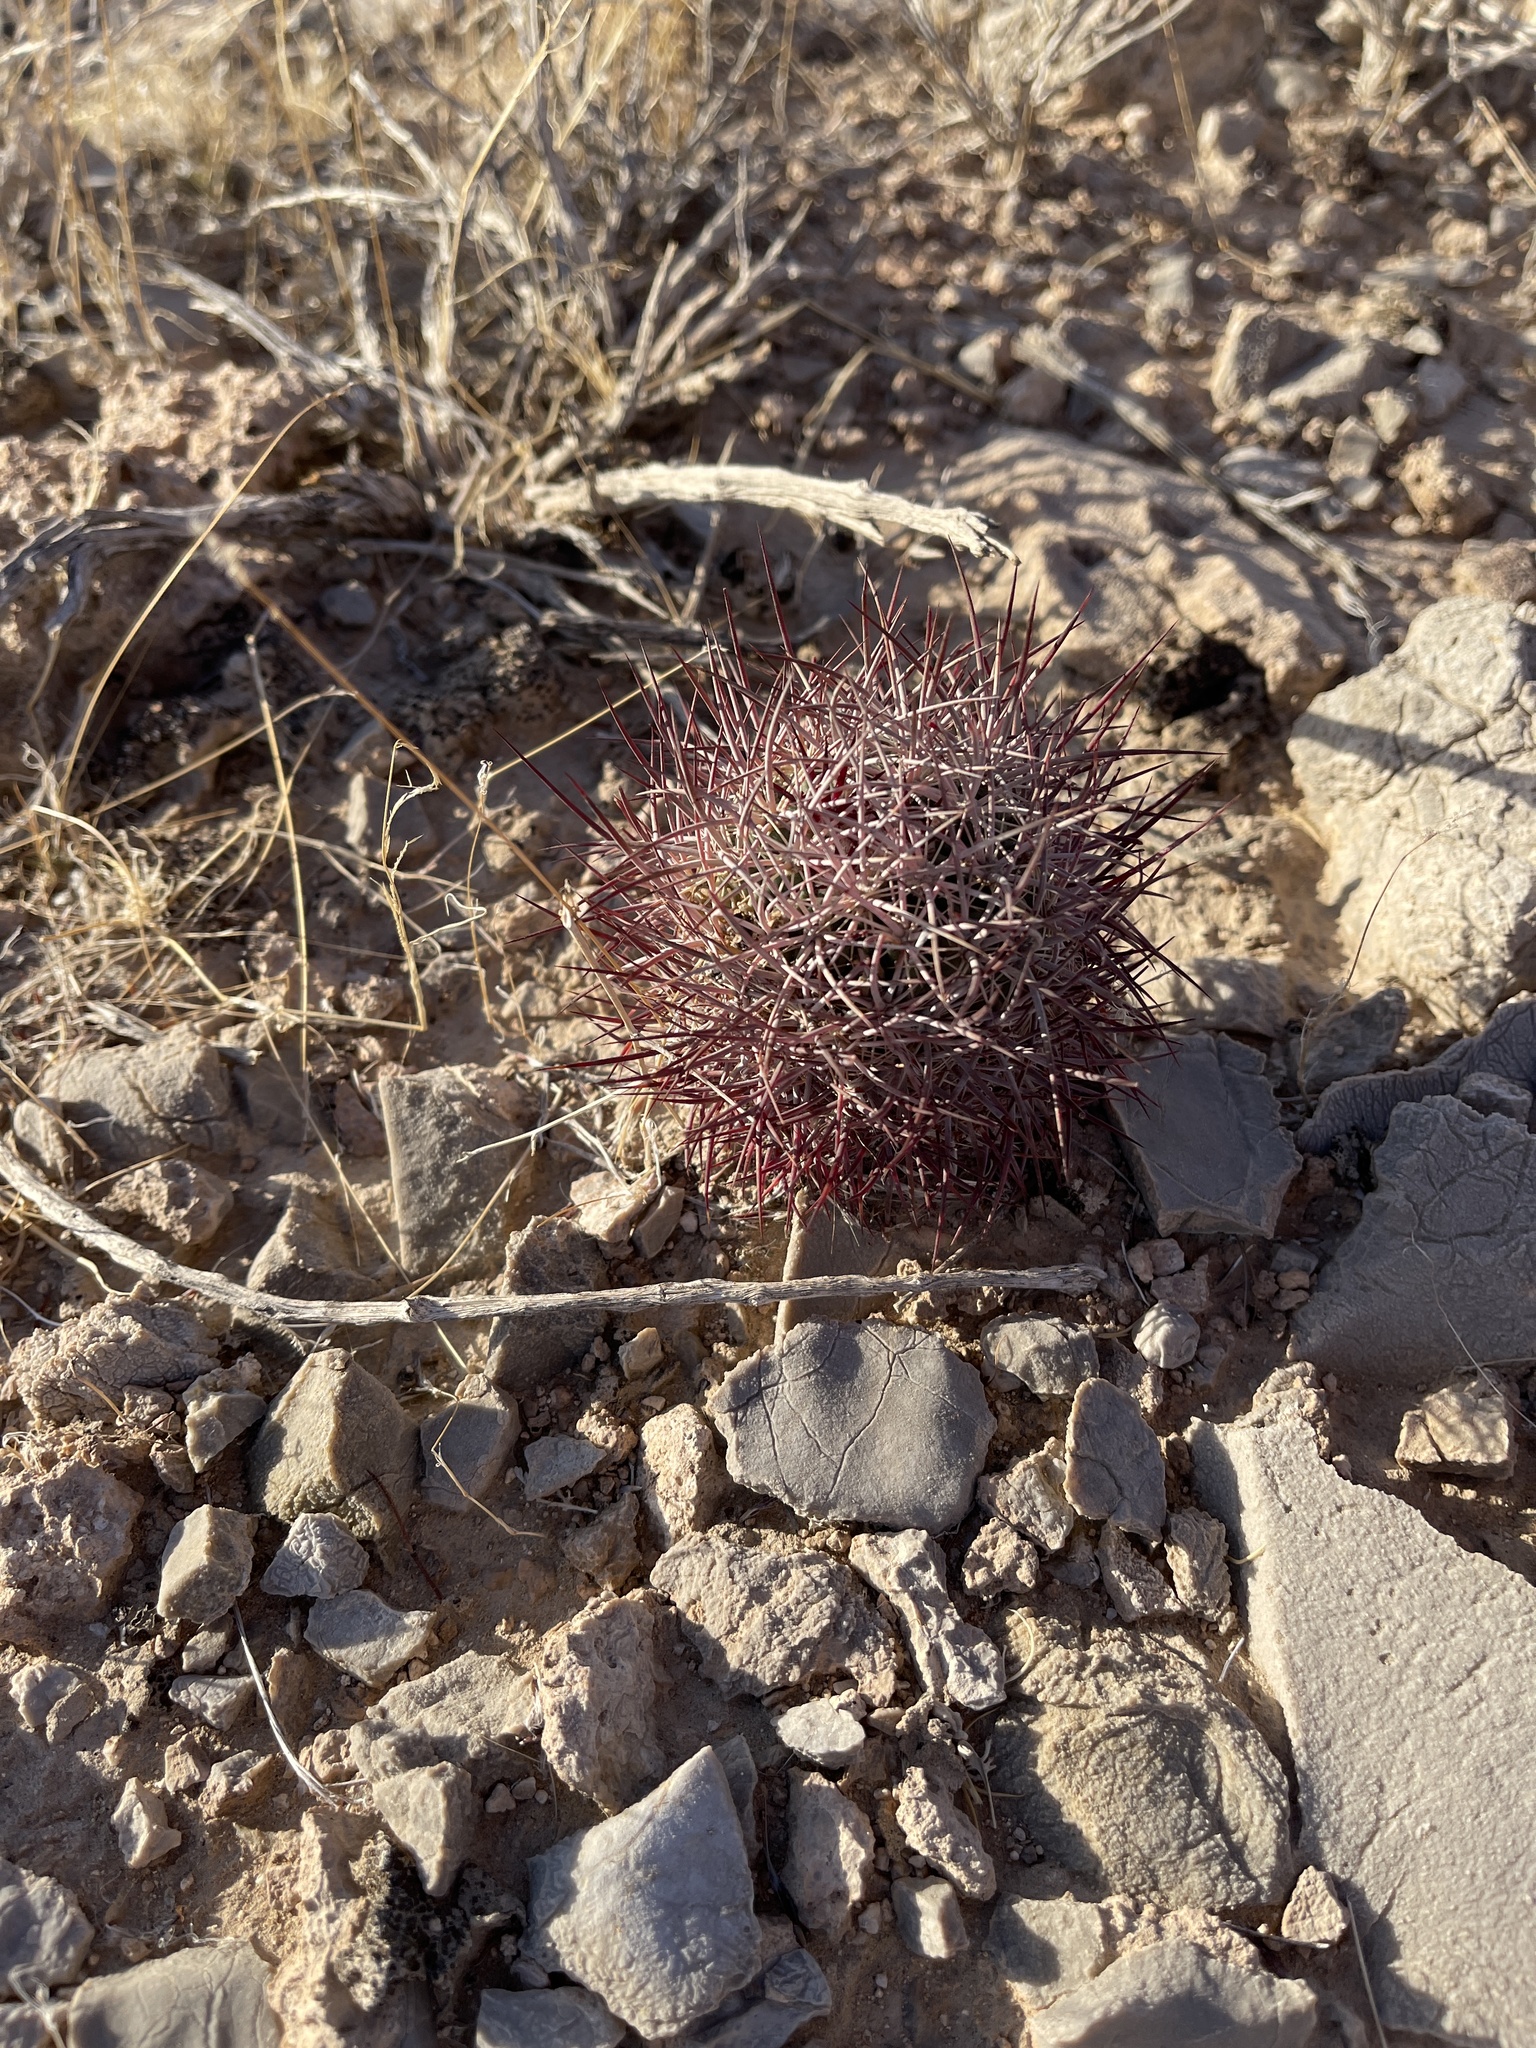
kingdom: Plantae
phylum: Tracheophyta
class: Magnoliopsida
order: Caryophyllales
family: Cactaceae
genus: Sclerocactus
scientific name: Sclerocactus johnsonii
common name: Eight-spine fishhook cactus
